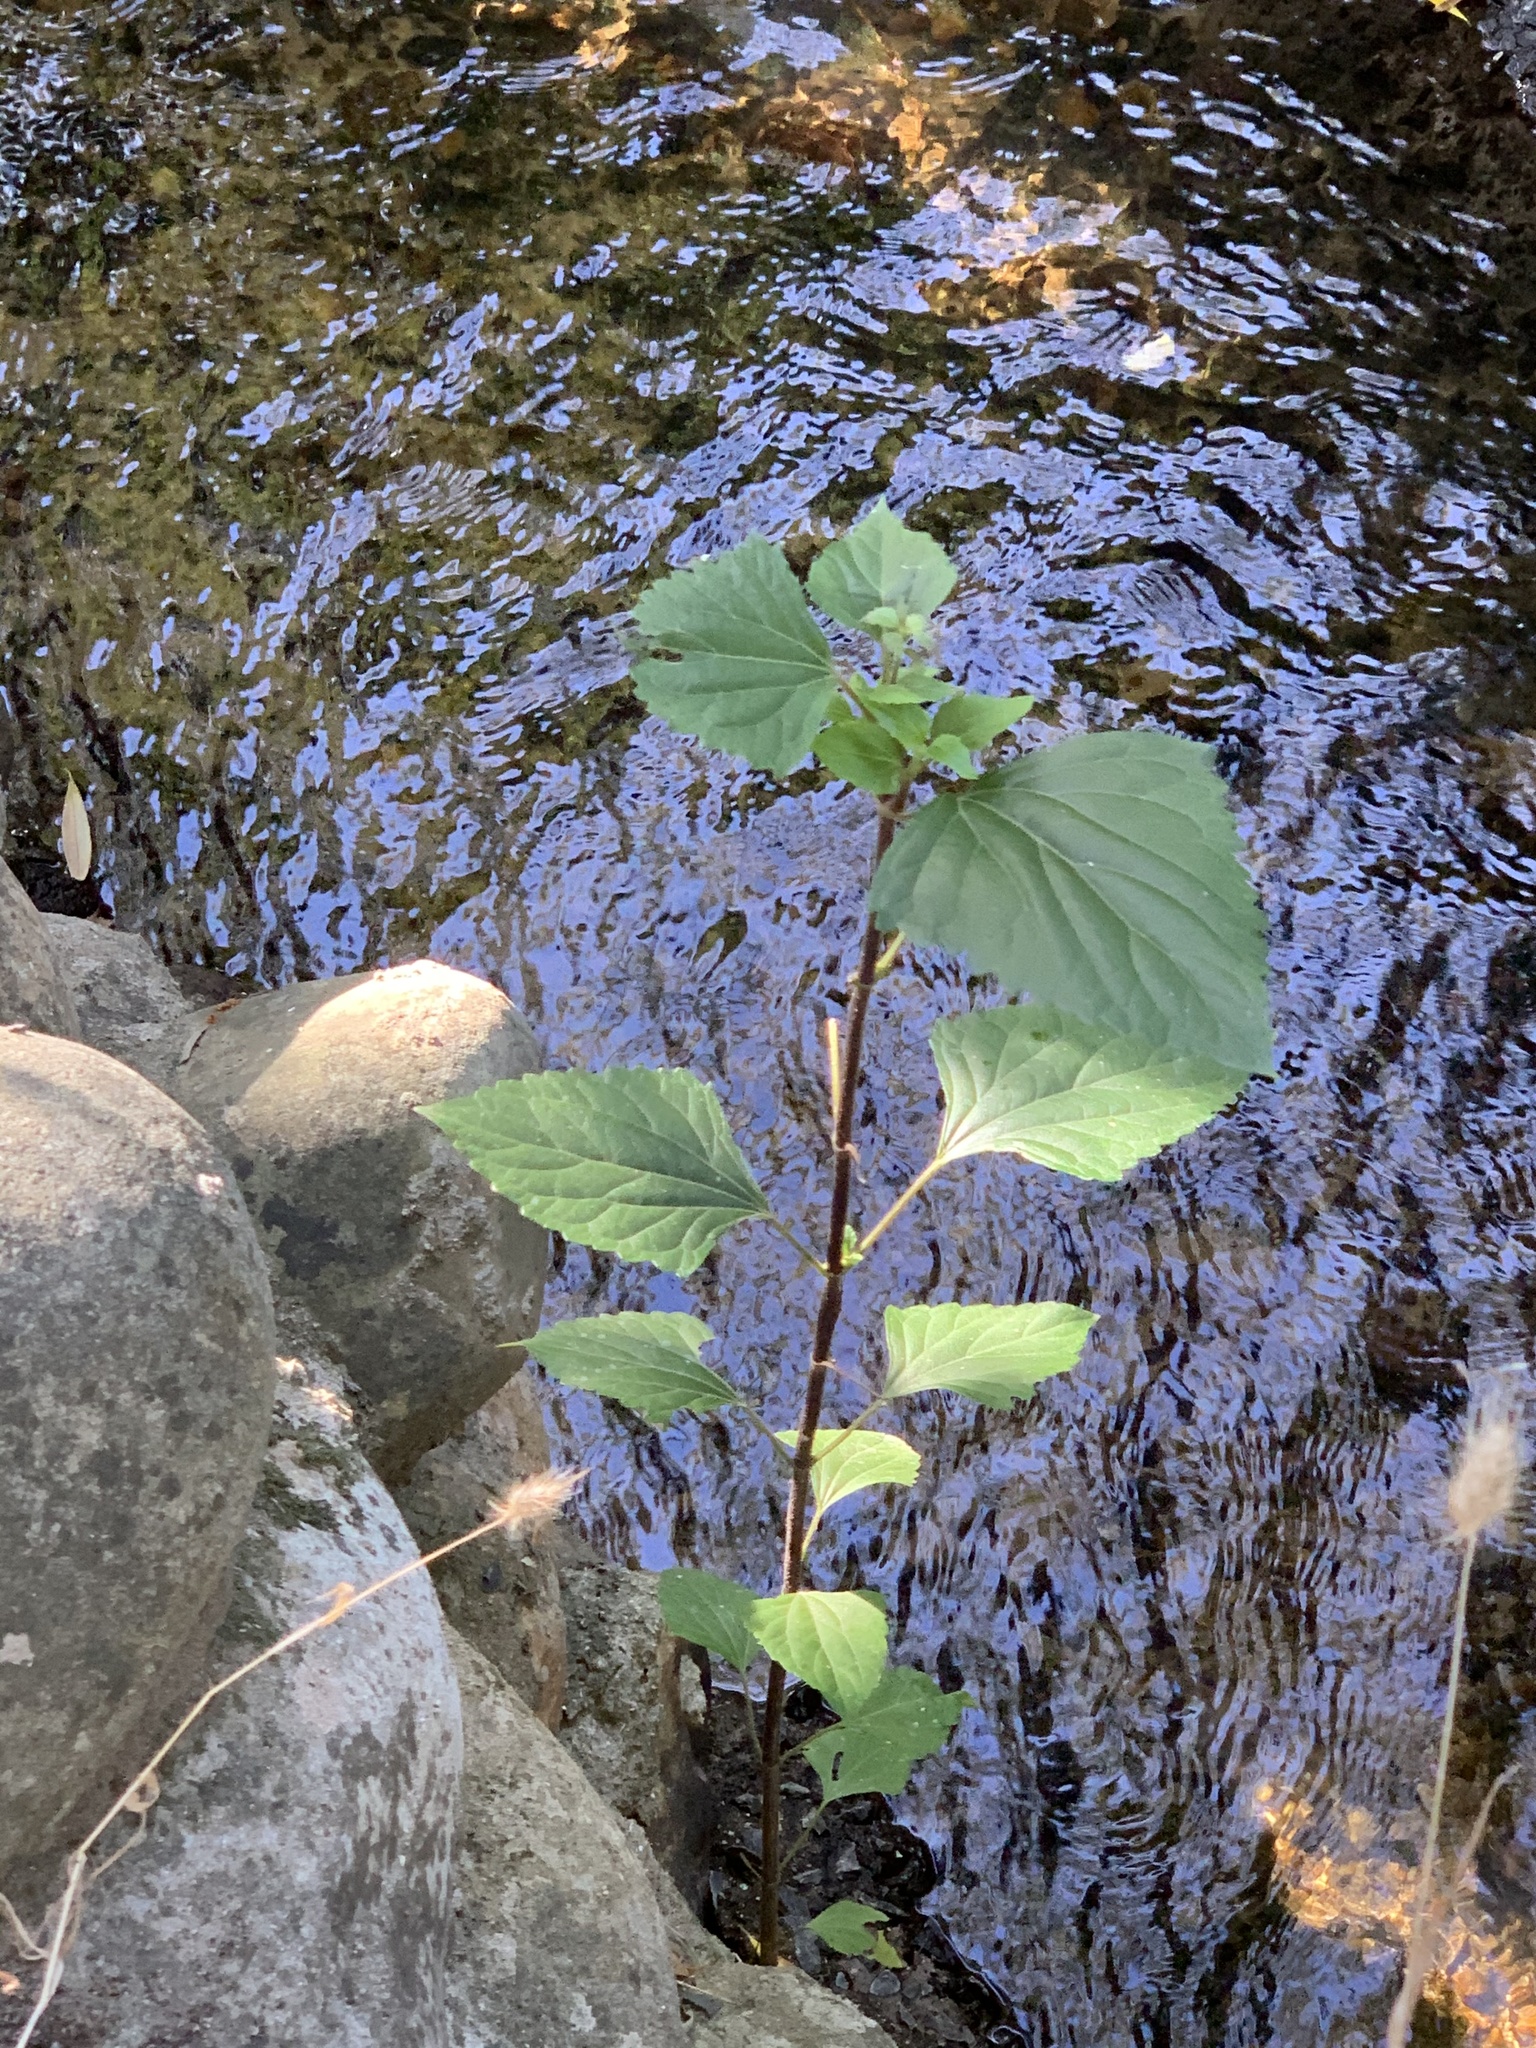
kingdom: Plantae
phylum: Tracheophyta
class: Magnoliopsida
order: Asterales
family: Asteraceae
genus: Ageratina
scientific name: Ageratina adenophora
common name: Sticky snakeroot
